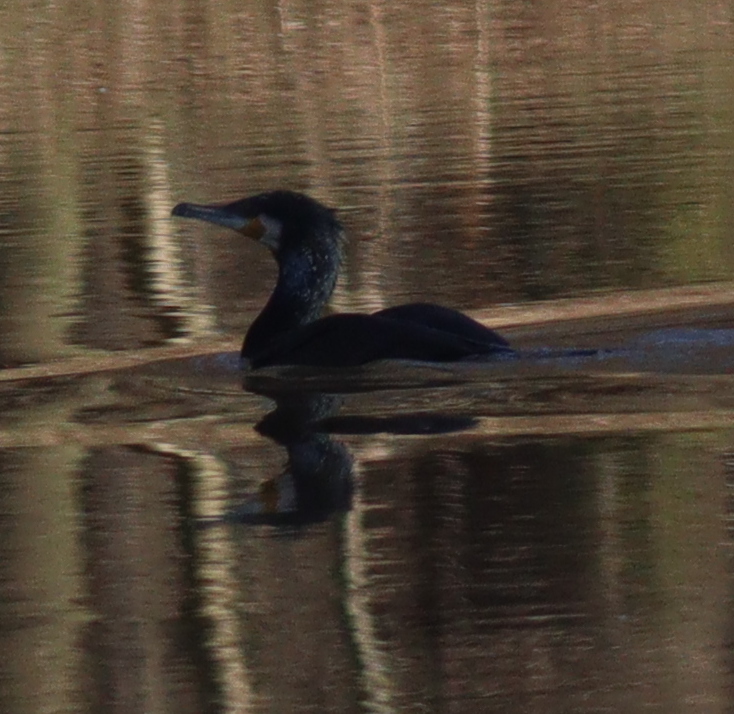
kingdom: Animalia
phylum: Chordata
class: Aves
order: Suliformes
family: Phalacrocoracidae
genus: Phalacrocorax
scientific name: Phalacrocorax carbo
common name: Great cormorant
